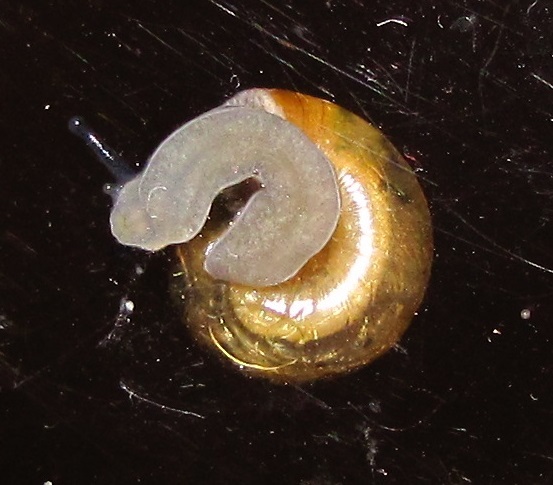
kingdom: Animalia
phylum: Mollusca
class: Gastropoda
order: Stylommatophora
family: Gastrodontidae
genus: Ventridens
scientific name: Ventridens demissus
